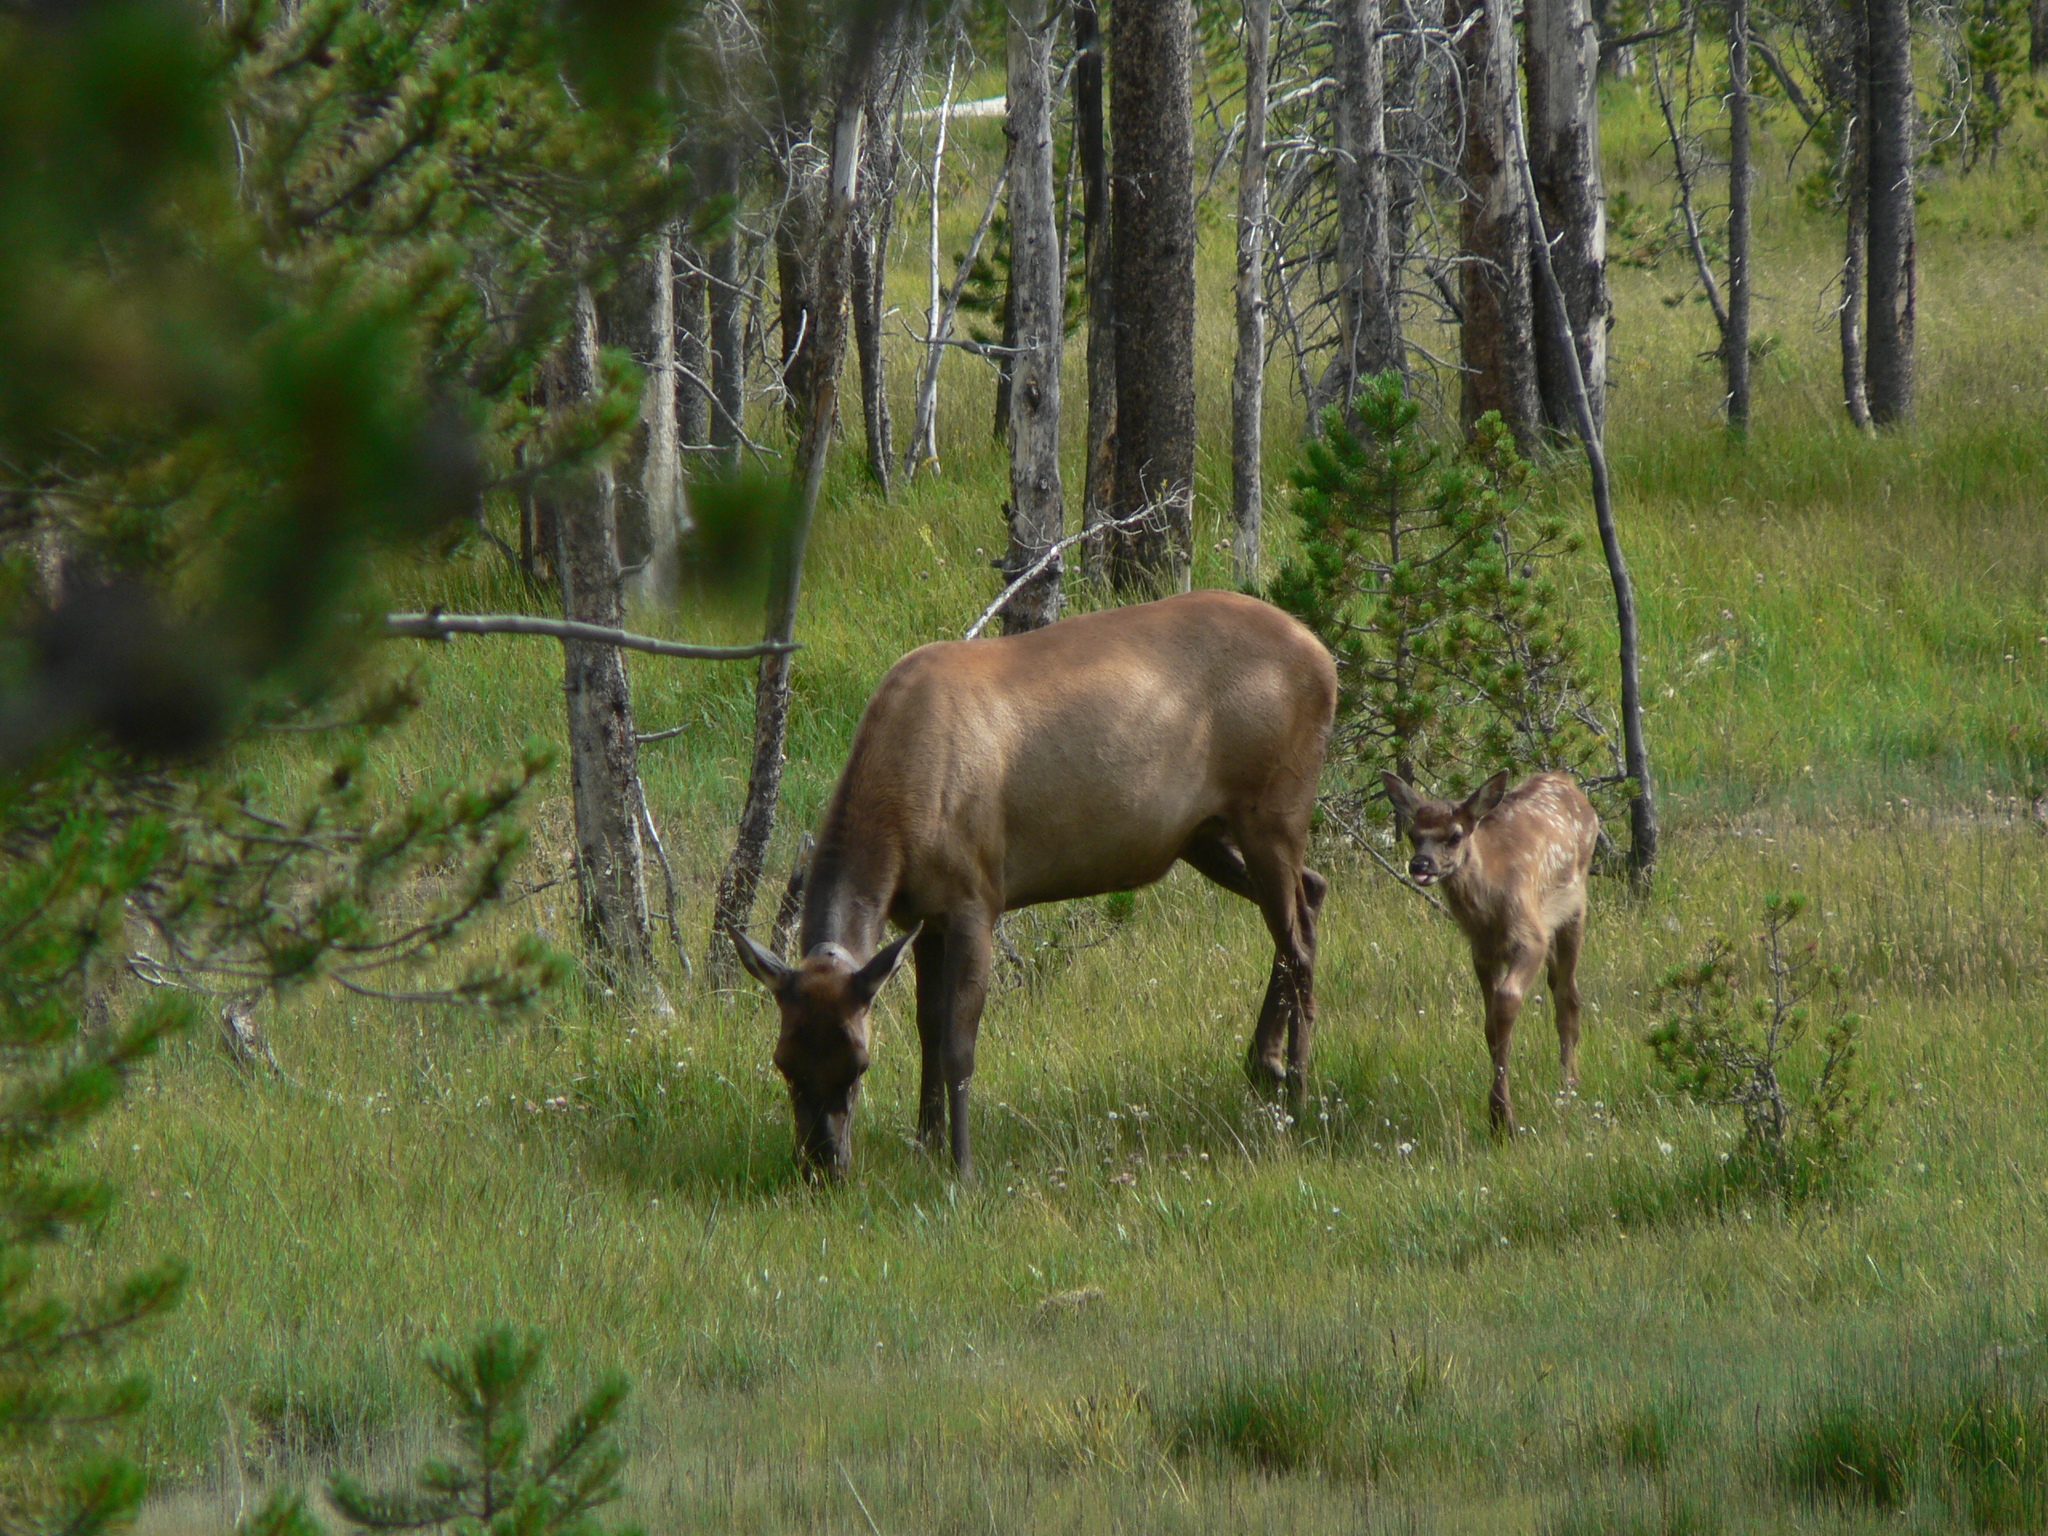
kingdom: Animalia
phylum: Chordata
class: Mammalia
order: Artiodactyla
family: Cervidae
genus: Cervus
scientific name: Cervus elaphus
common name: Red deer
